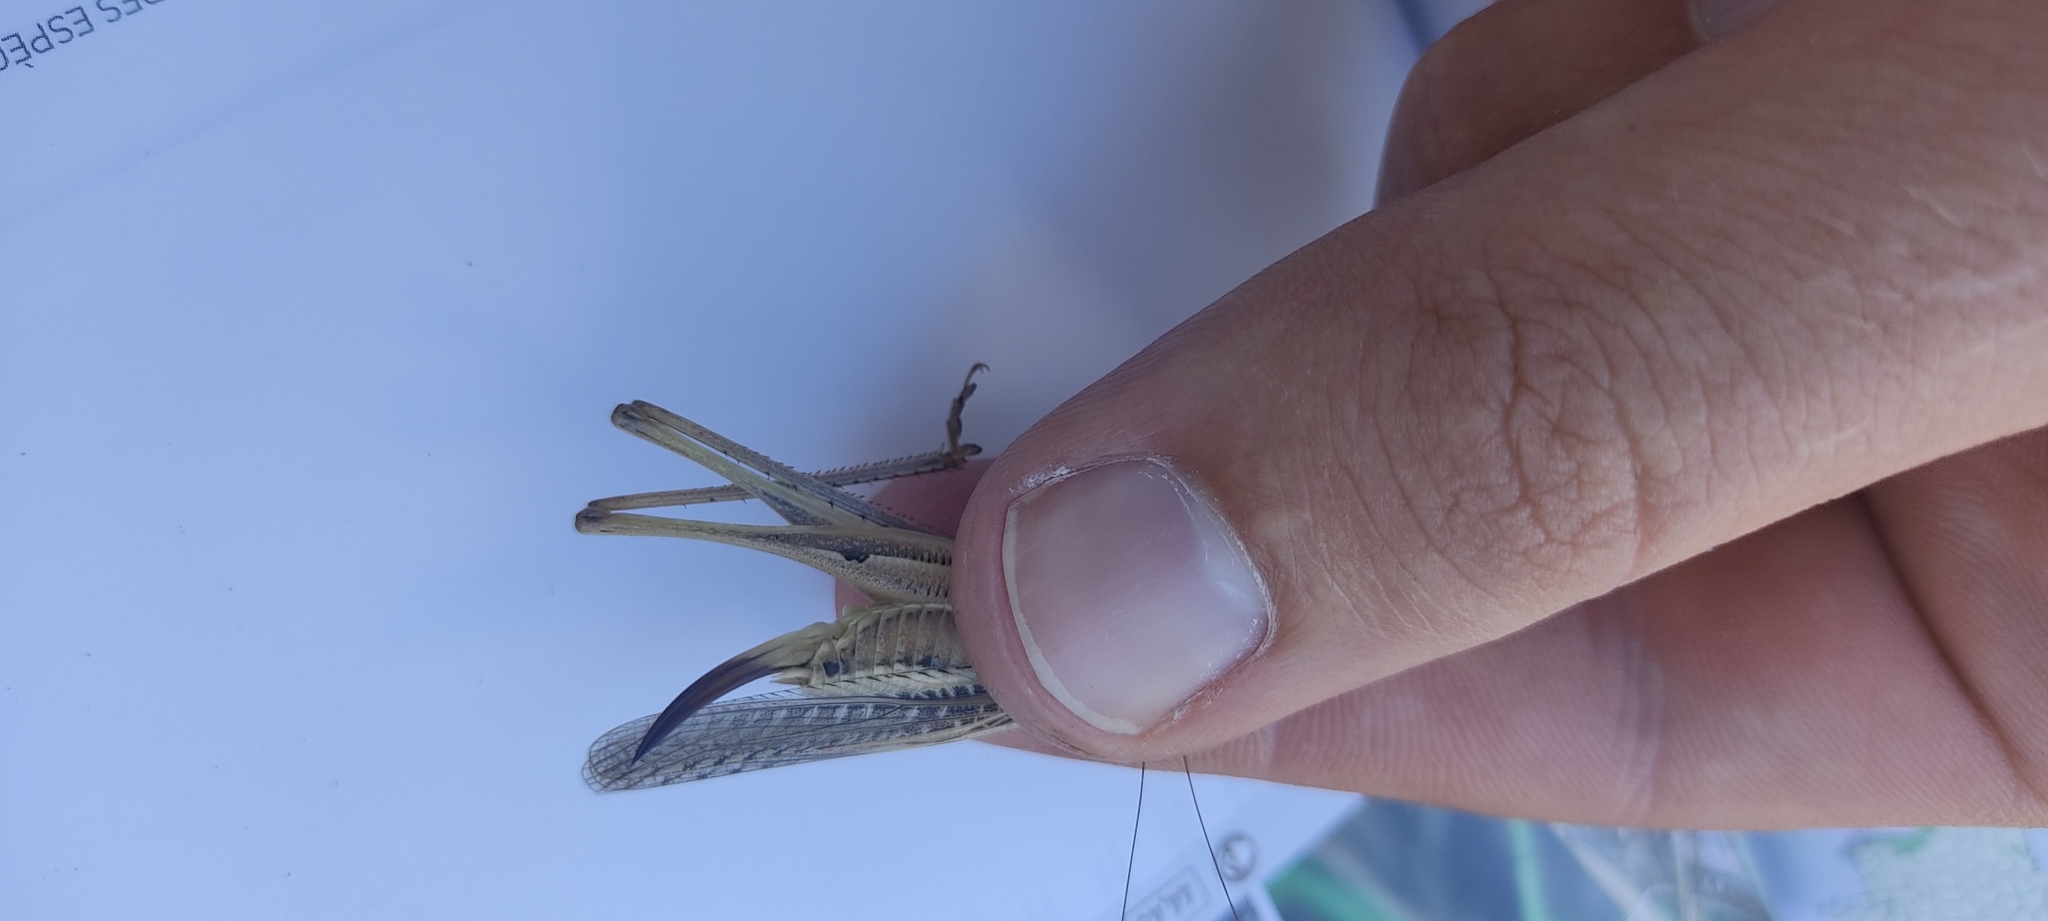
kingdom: Animalia
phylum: Arthropoda
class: Insecta
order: Orthoptera
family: Tettigoniidae
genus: Platycleis
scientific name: Platycleis affinis
